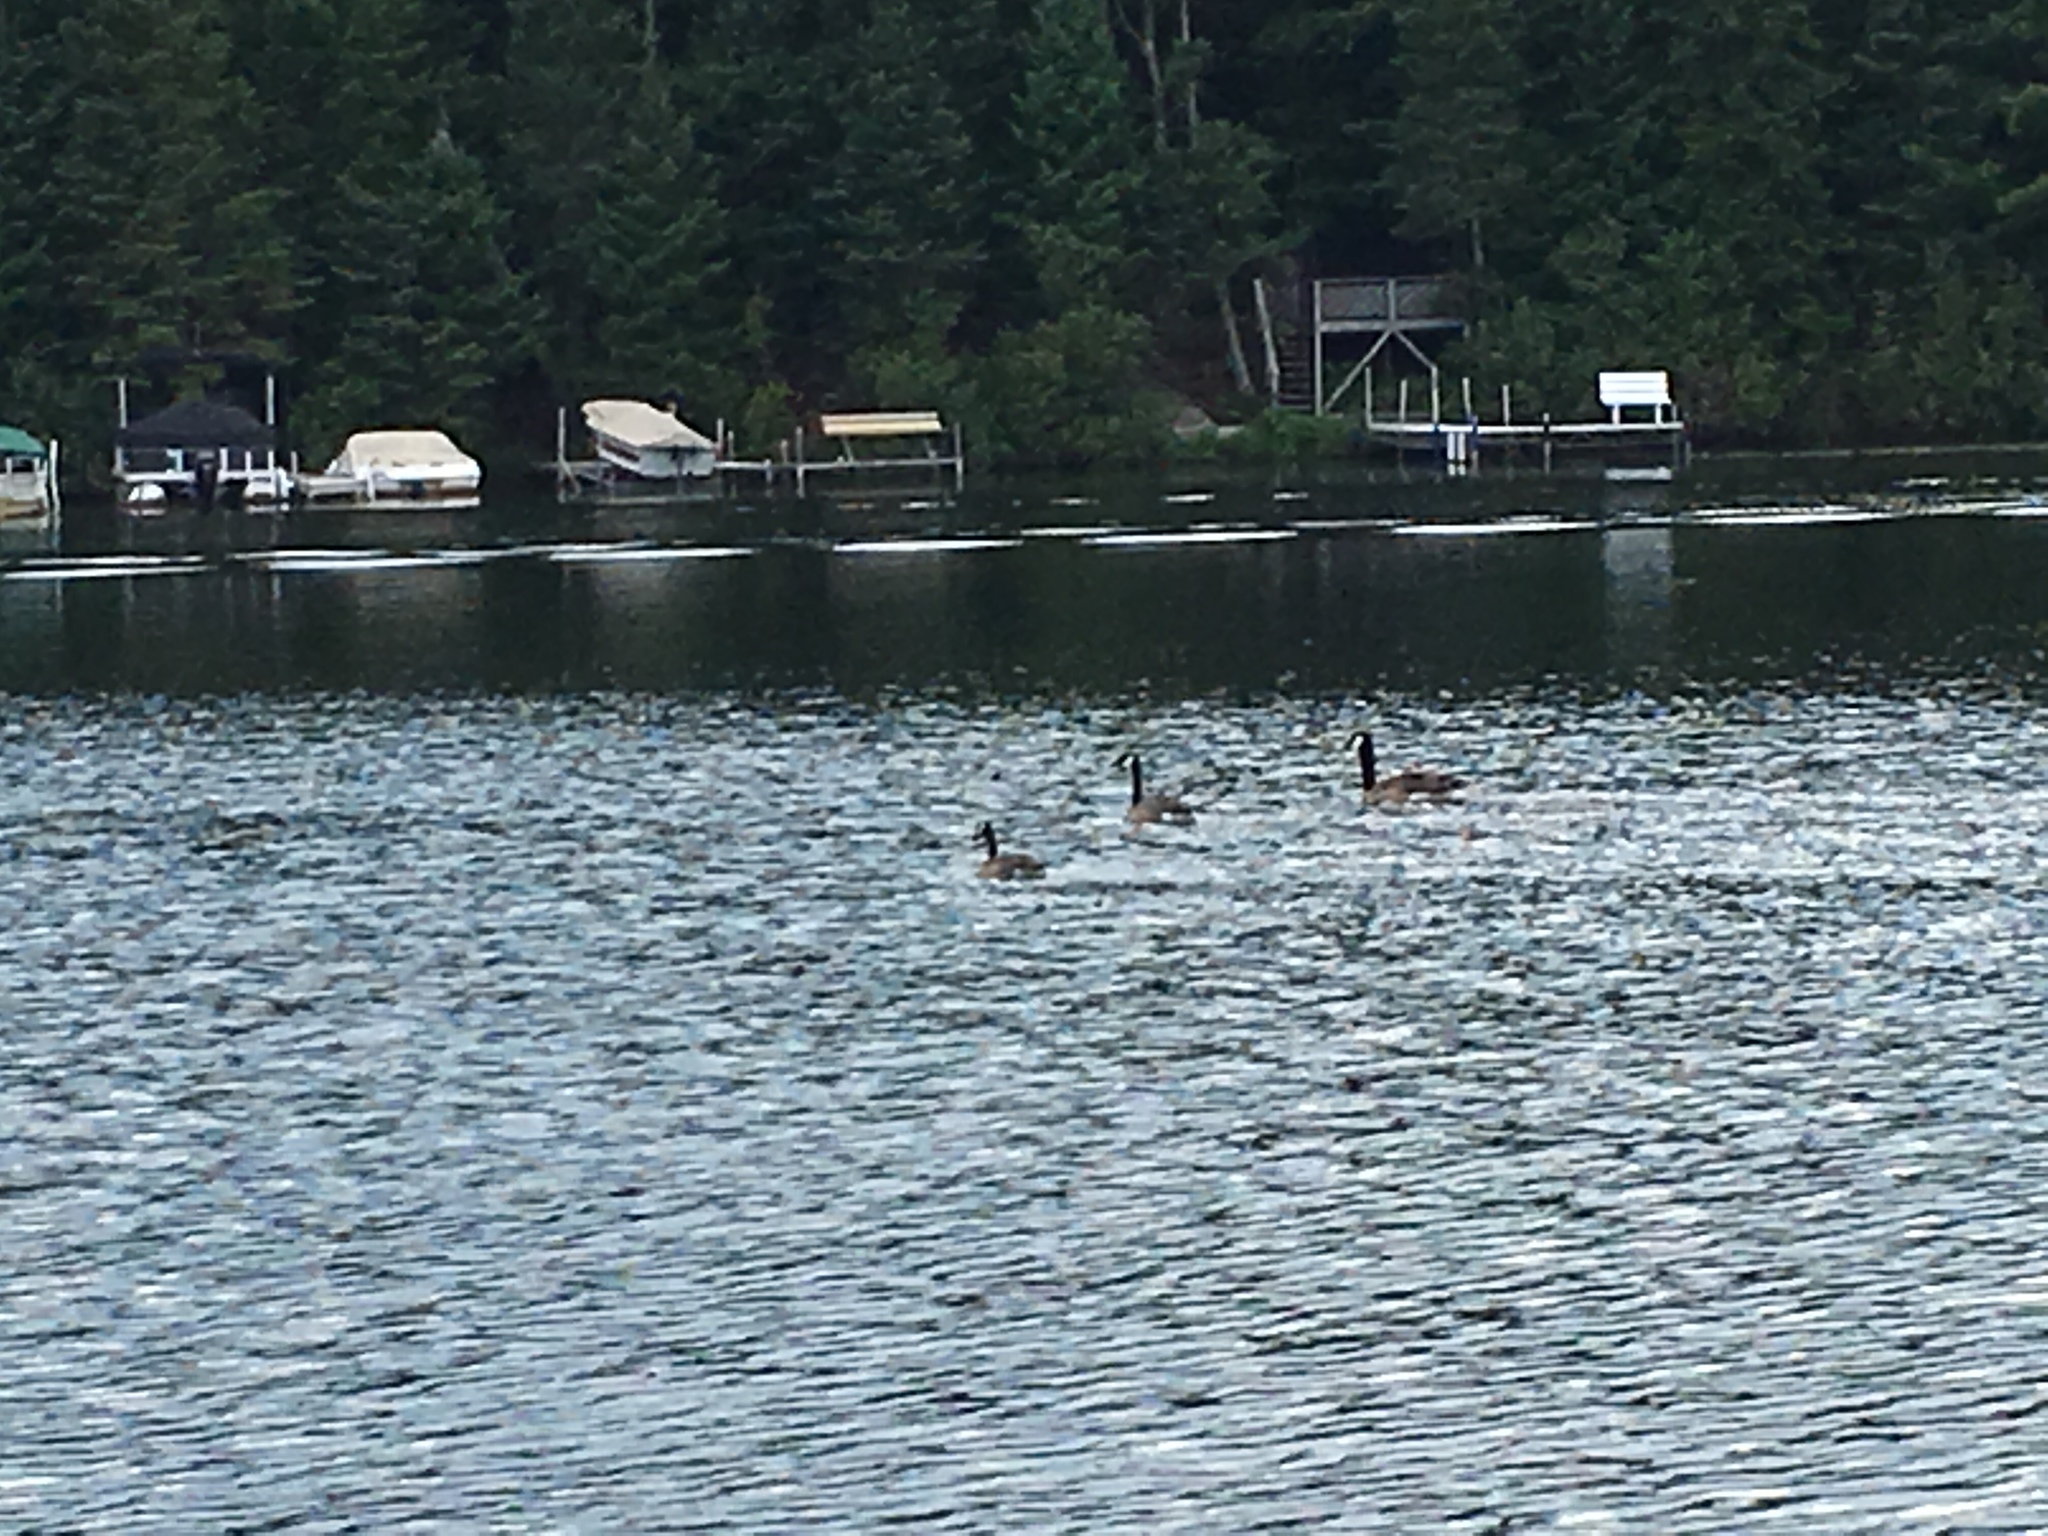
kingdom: Animalia
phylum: Chordata
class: Aves
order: Anseriformes
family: Anatidae
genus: Branta
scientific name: Branta canadensis
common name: Canada goose
